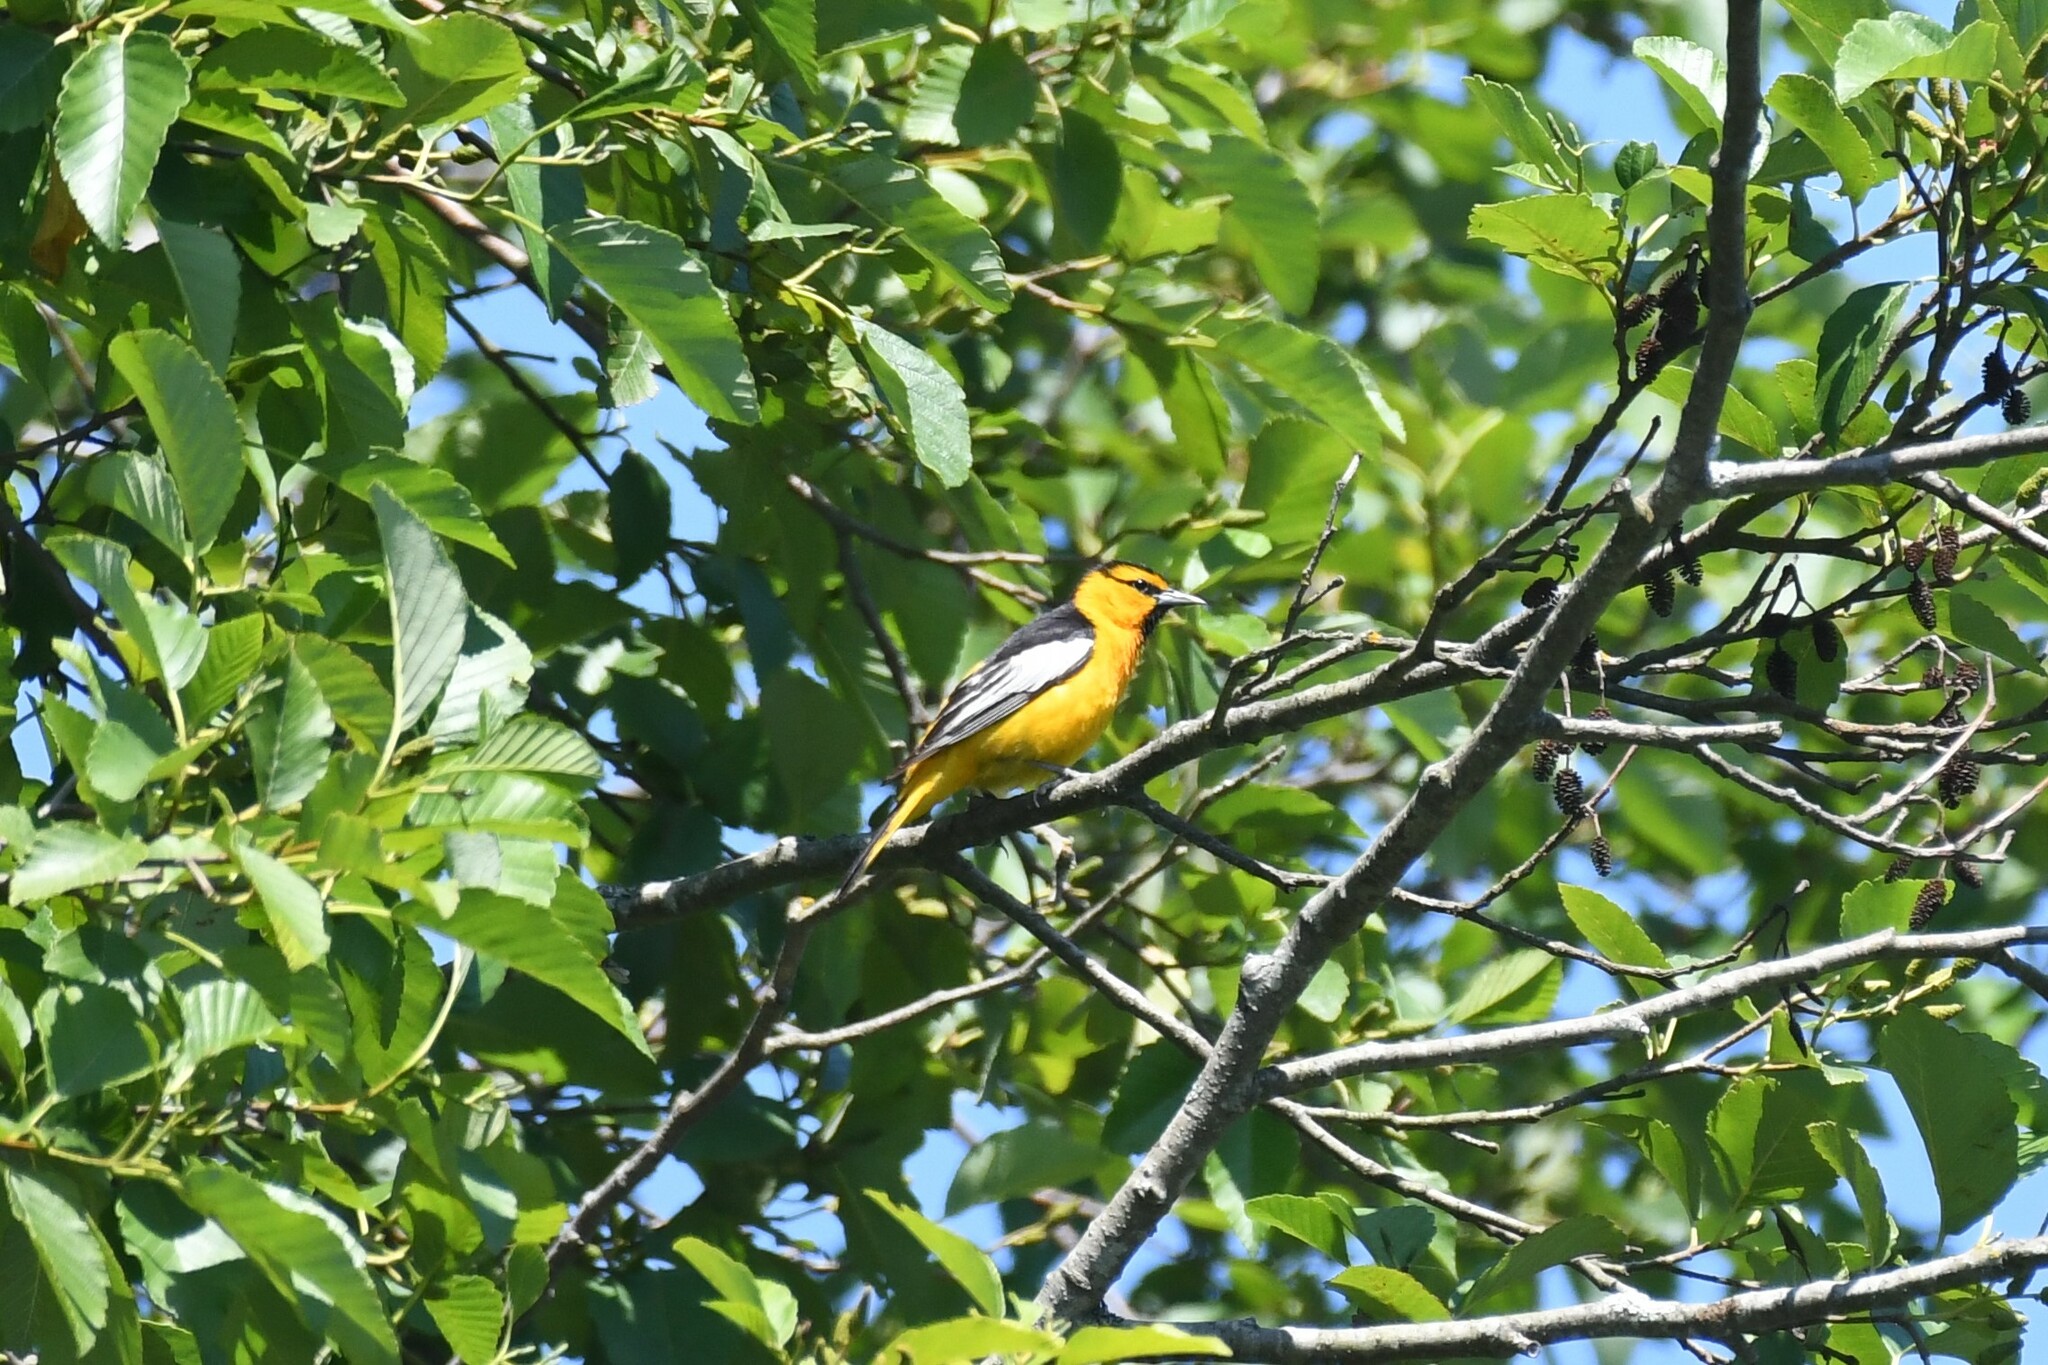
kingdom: Animalia
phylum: Chordata
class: Aves
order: Passeriformes
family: Icteridae
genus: Icterus
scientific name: Icterus bullockii
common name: Bullock's oriole
